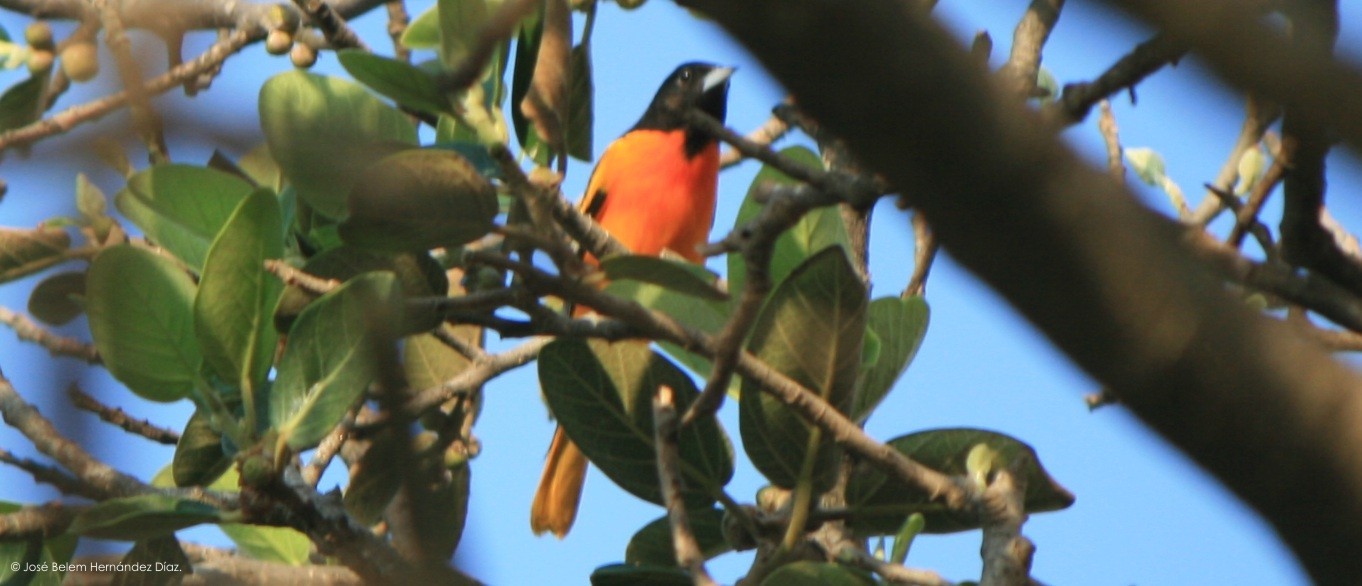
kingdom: Animalia
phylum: Chordata
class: Aves
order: Passeriformes
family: Icteridae
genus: Icterus
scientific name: Icterus galbula
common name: Baltimore oriole
